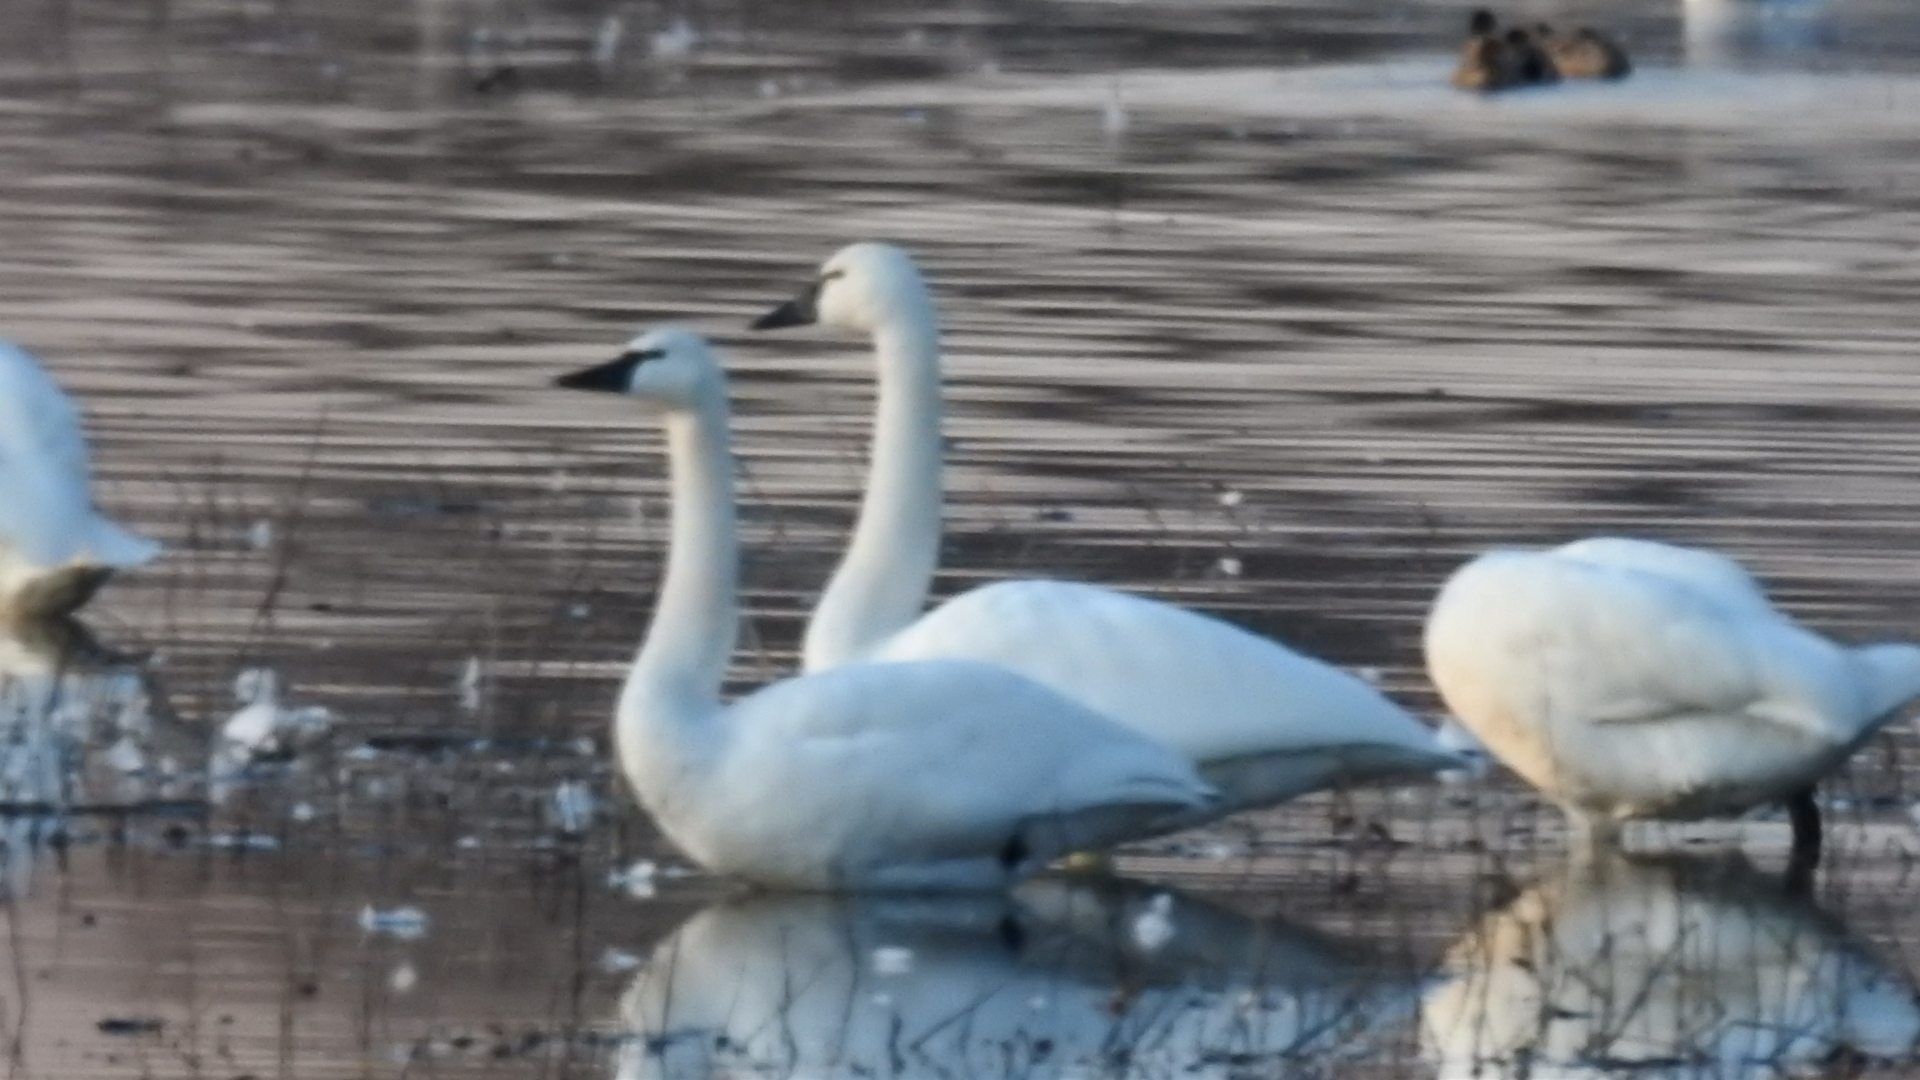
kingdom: Animalia
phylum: Chordata
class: Aves
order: Anseriformes
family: Anatidae
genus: Cygnus
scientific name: Cygnus columbianus
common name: Tundra swan
